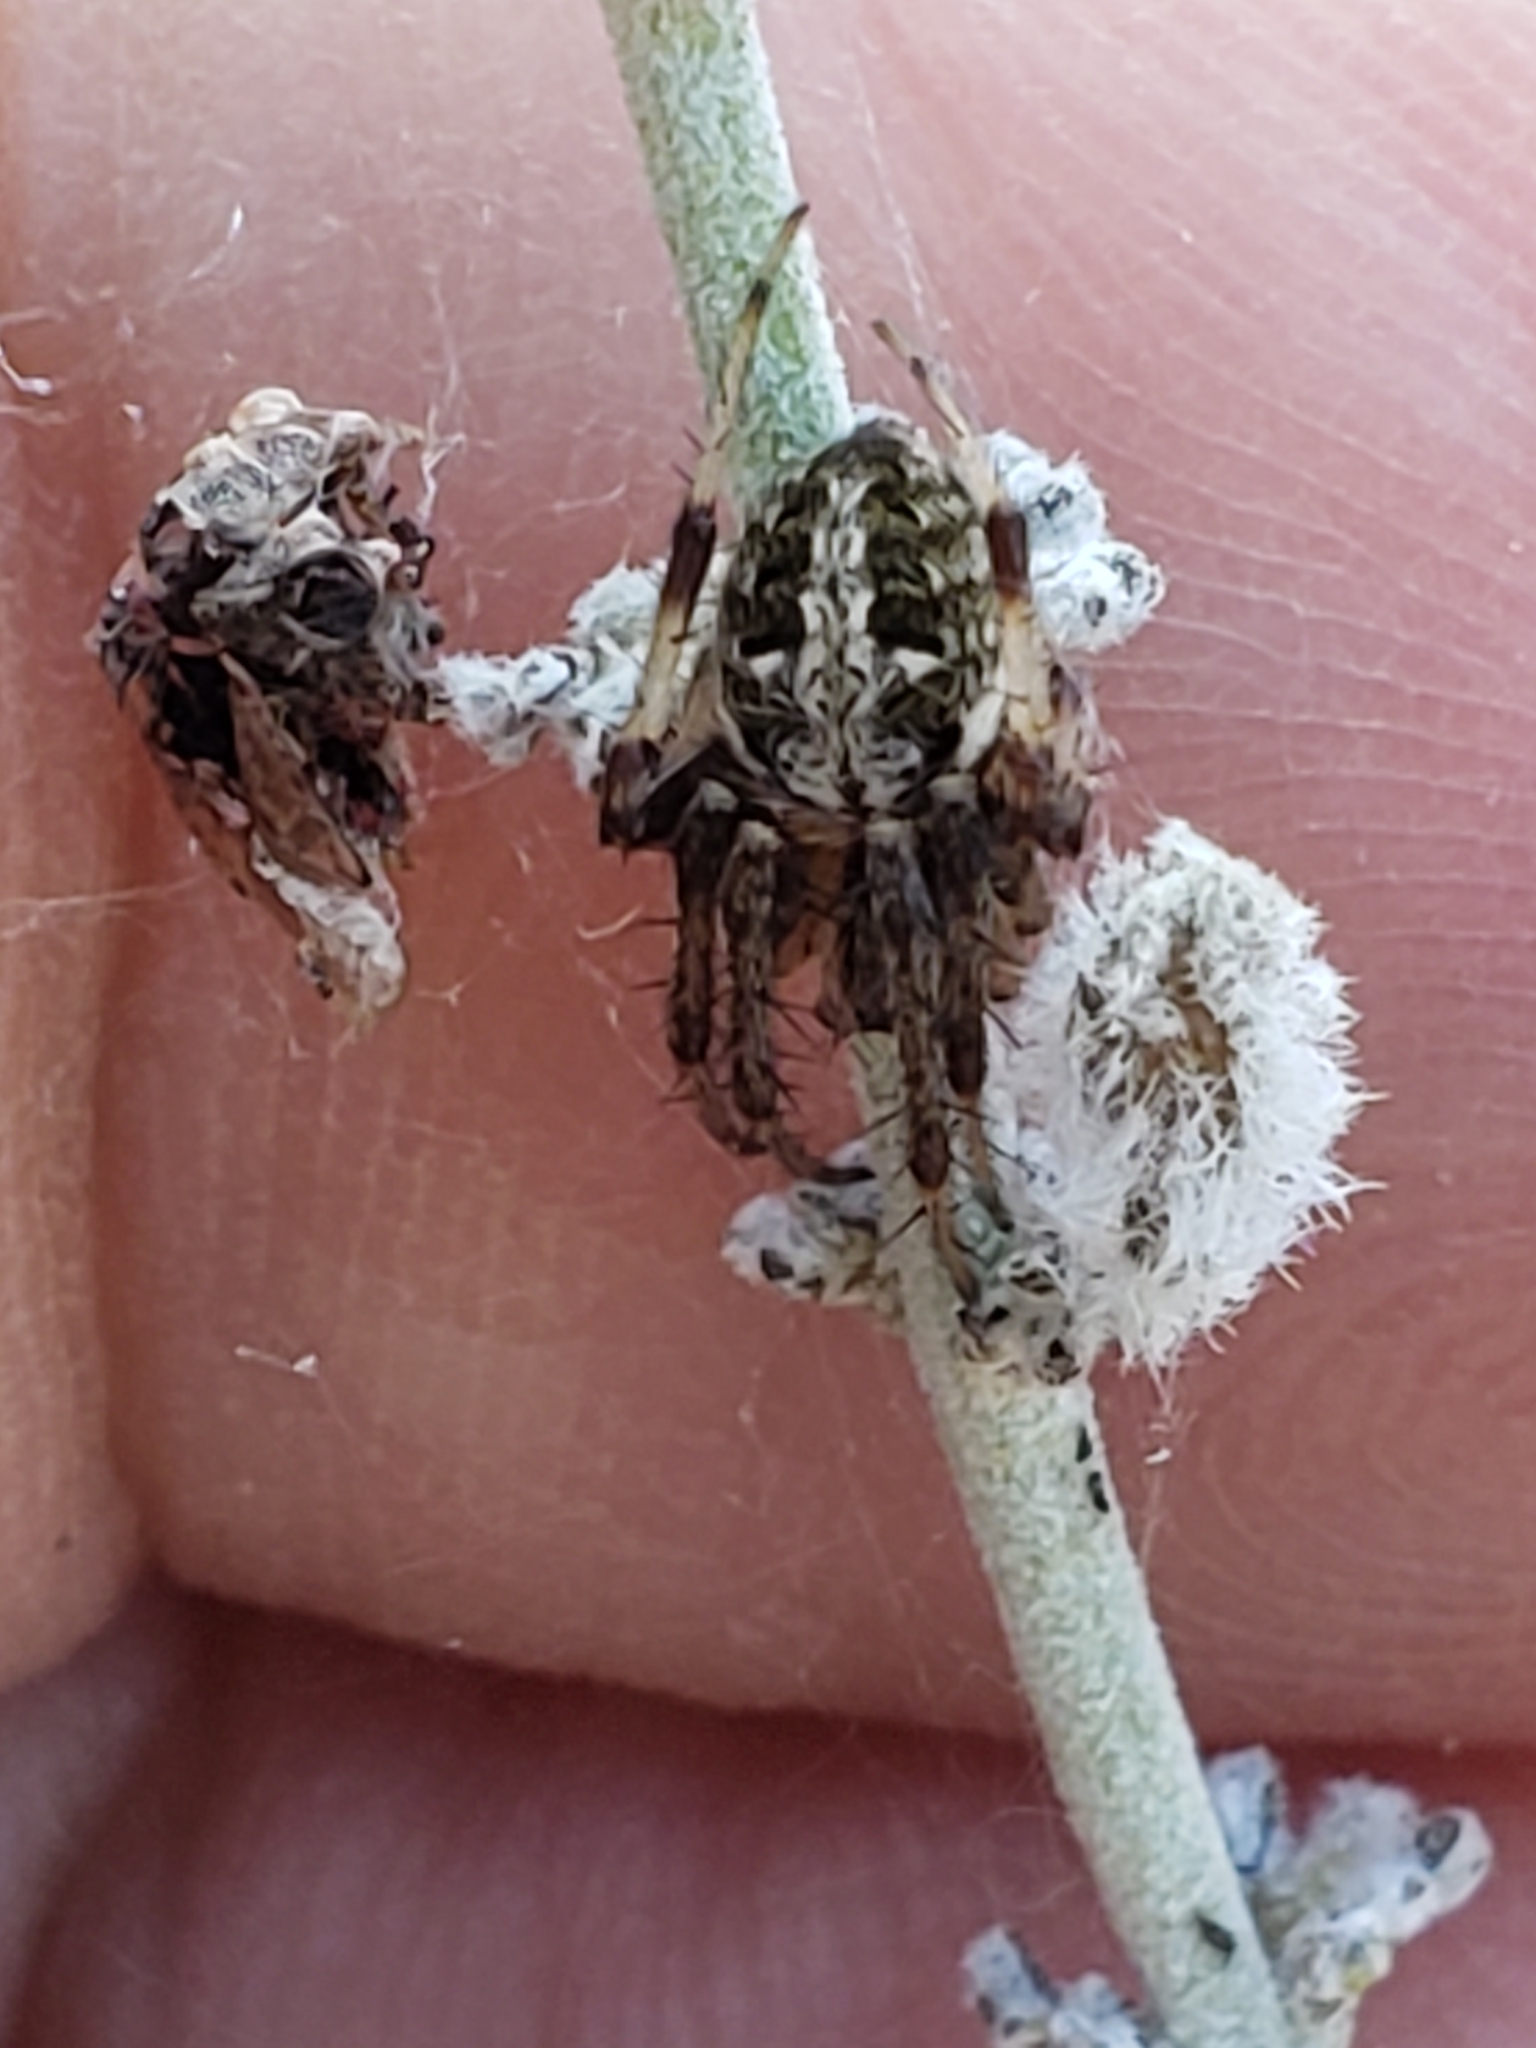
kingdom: Animalia
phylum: Arthropoda
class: Arachnida
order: Araneae
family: Araneidae
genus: Neoscona
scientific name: Neoscona arabesca
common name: Orb weavers
